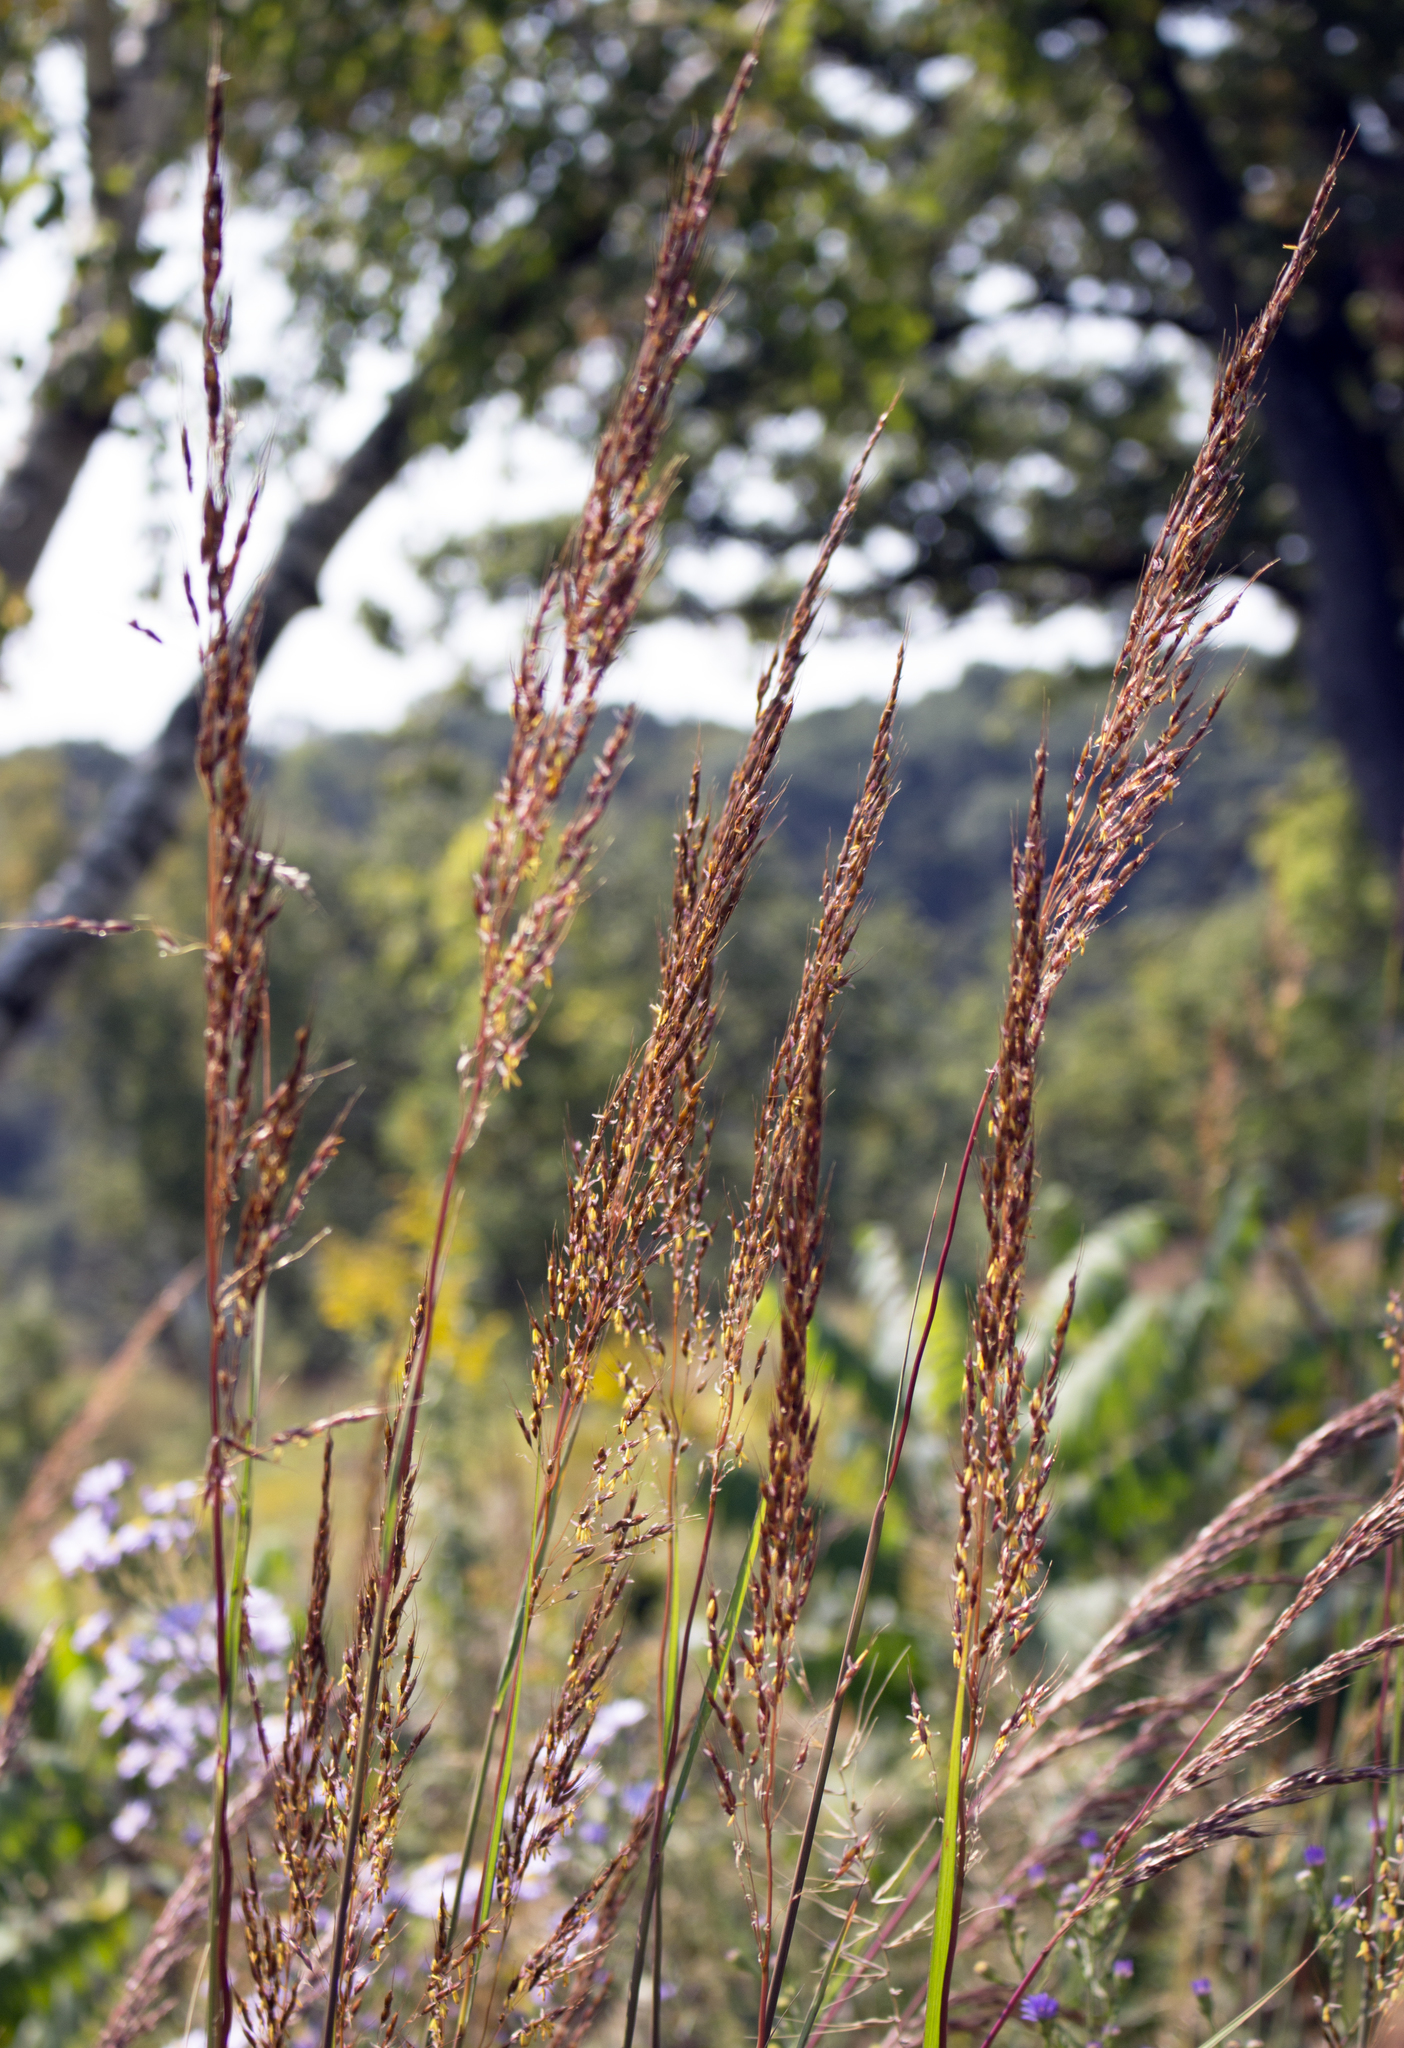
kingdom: Plantae
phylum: Tracheophyta
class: Liliopsida
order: Poales
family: Poaceae
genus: Sorghastrum
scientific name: Sorghastrum nutans
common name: Indian grass
